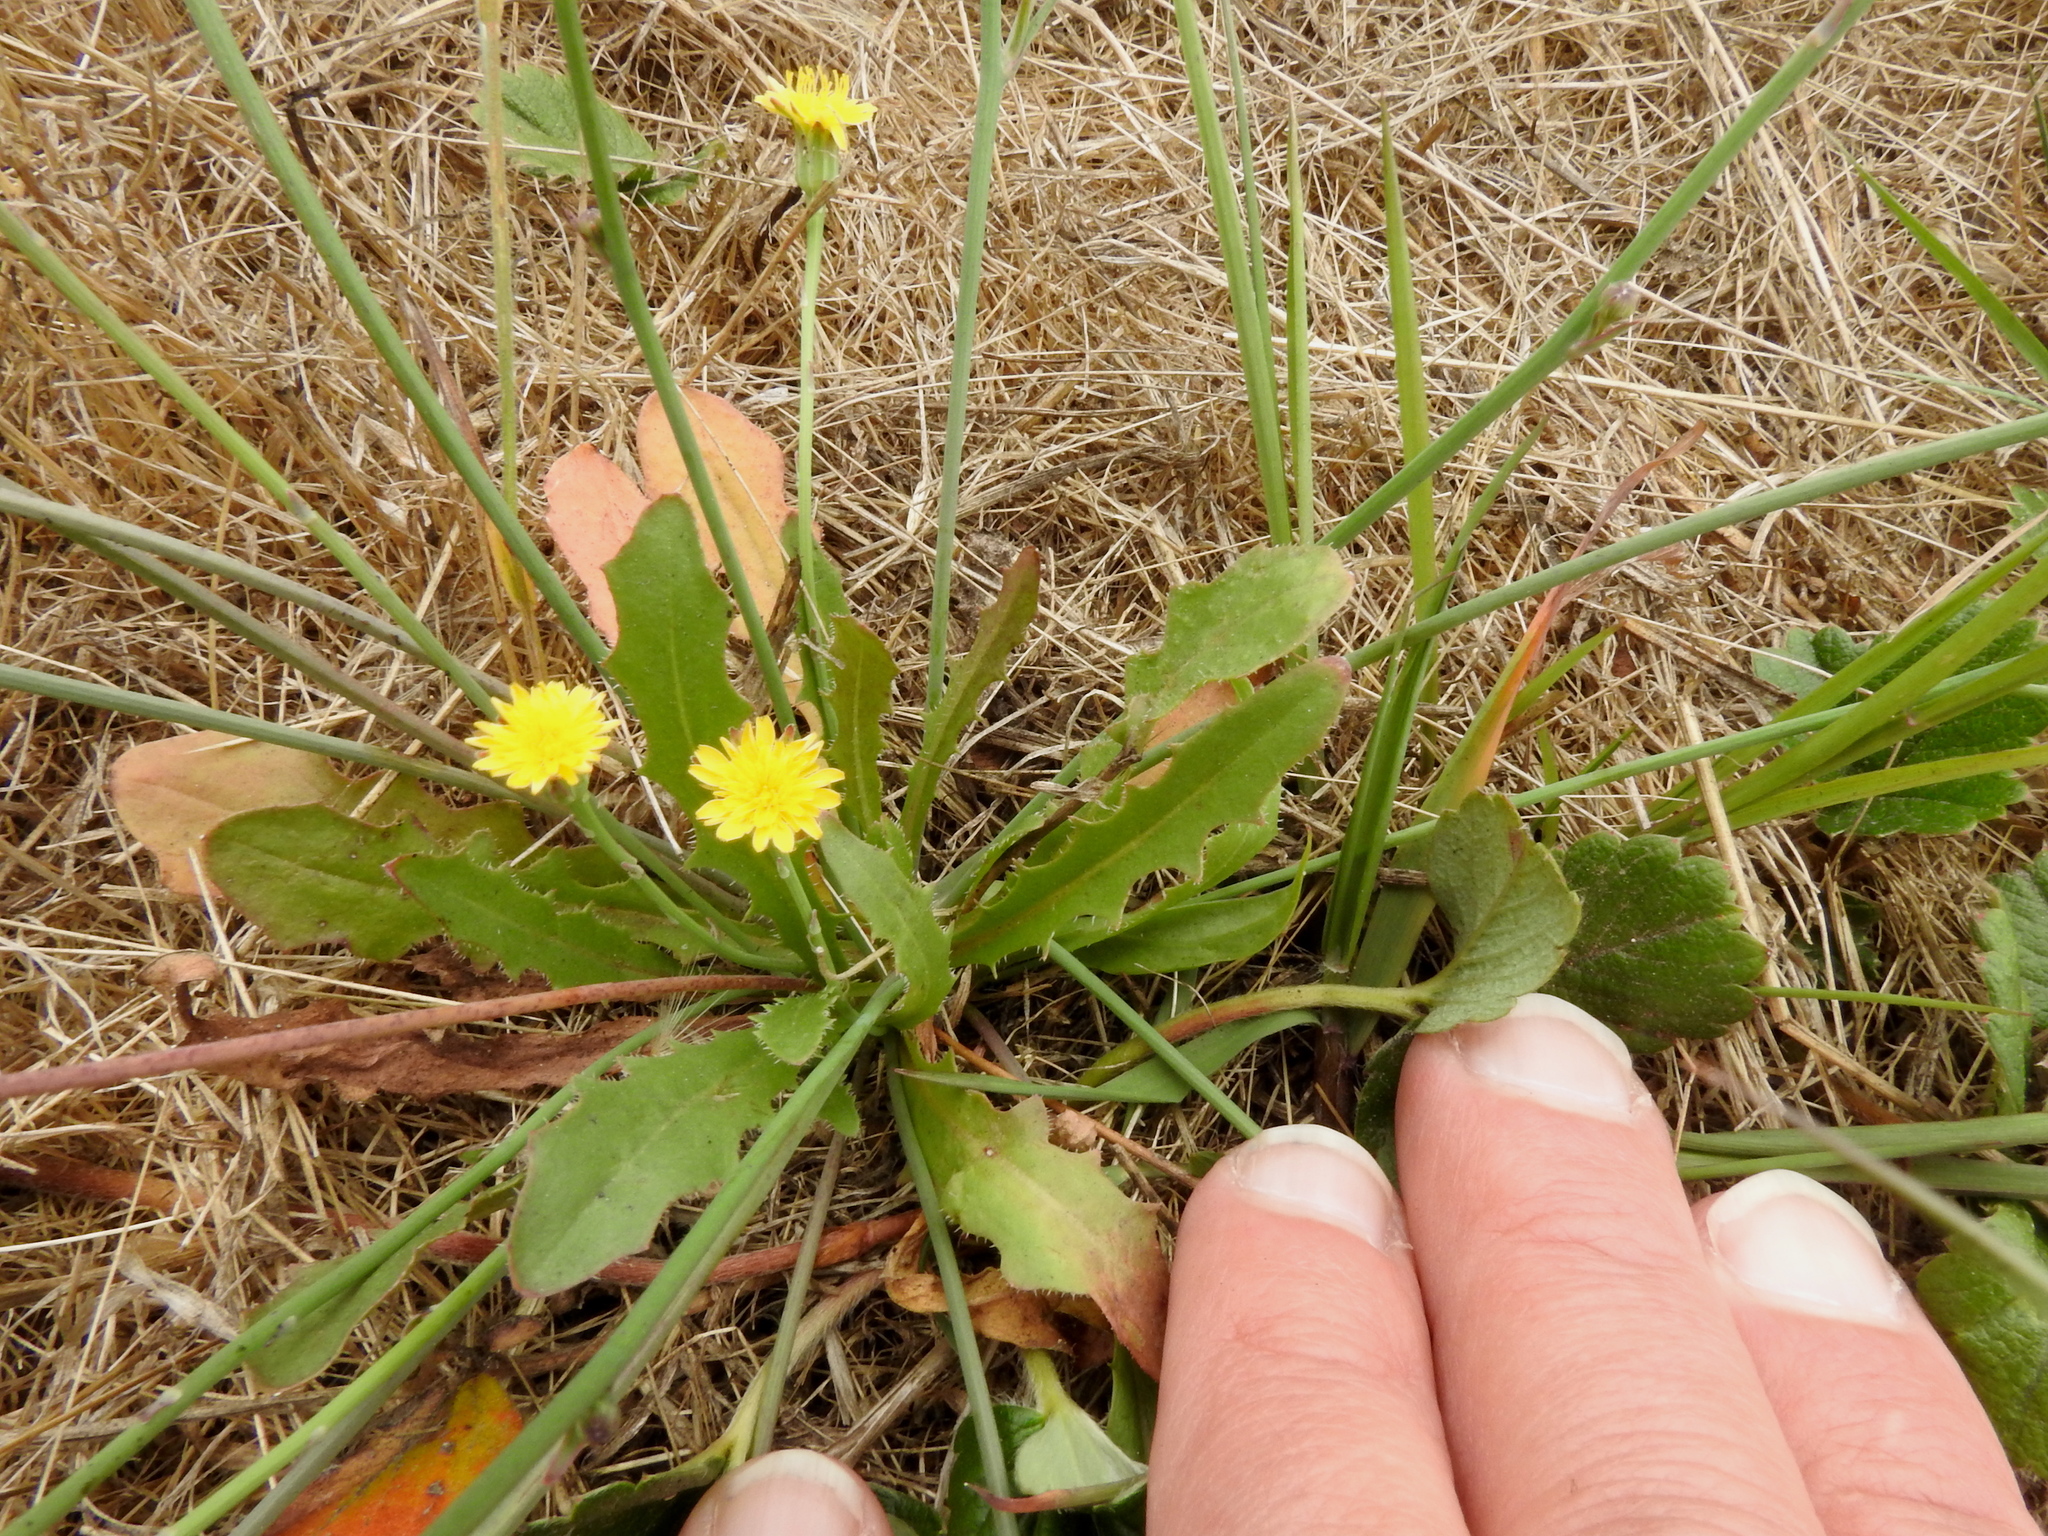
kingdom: Plantae
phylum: Tracheophyta
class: Magnoliopsida
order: Asterales
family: Asteraceae
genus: Hypochaeris
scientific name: Hypochaeris radicata
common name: Flatweed
